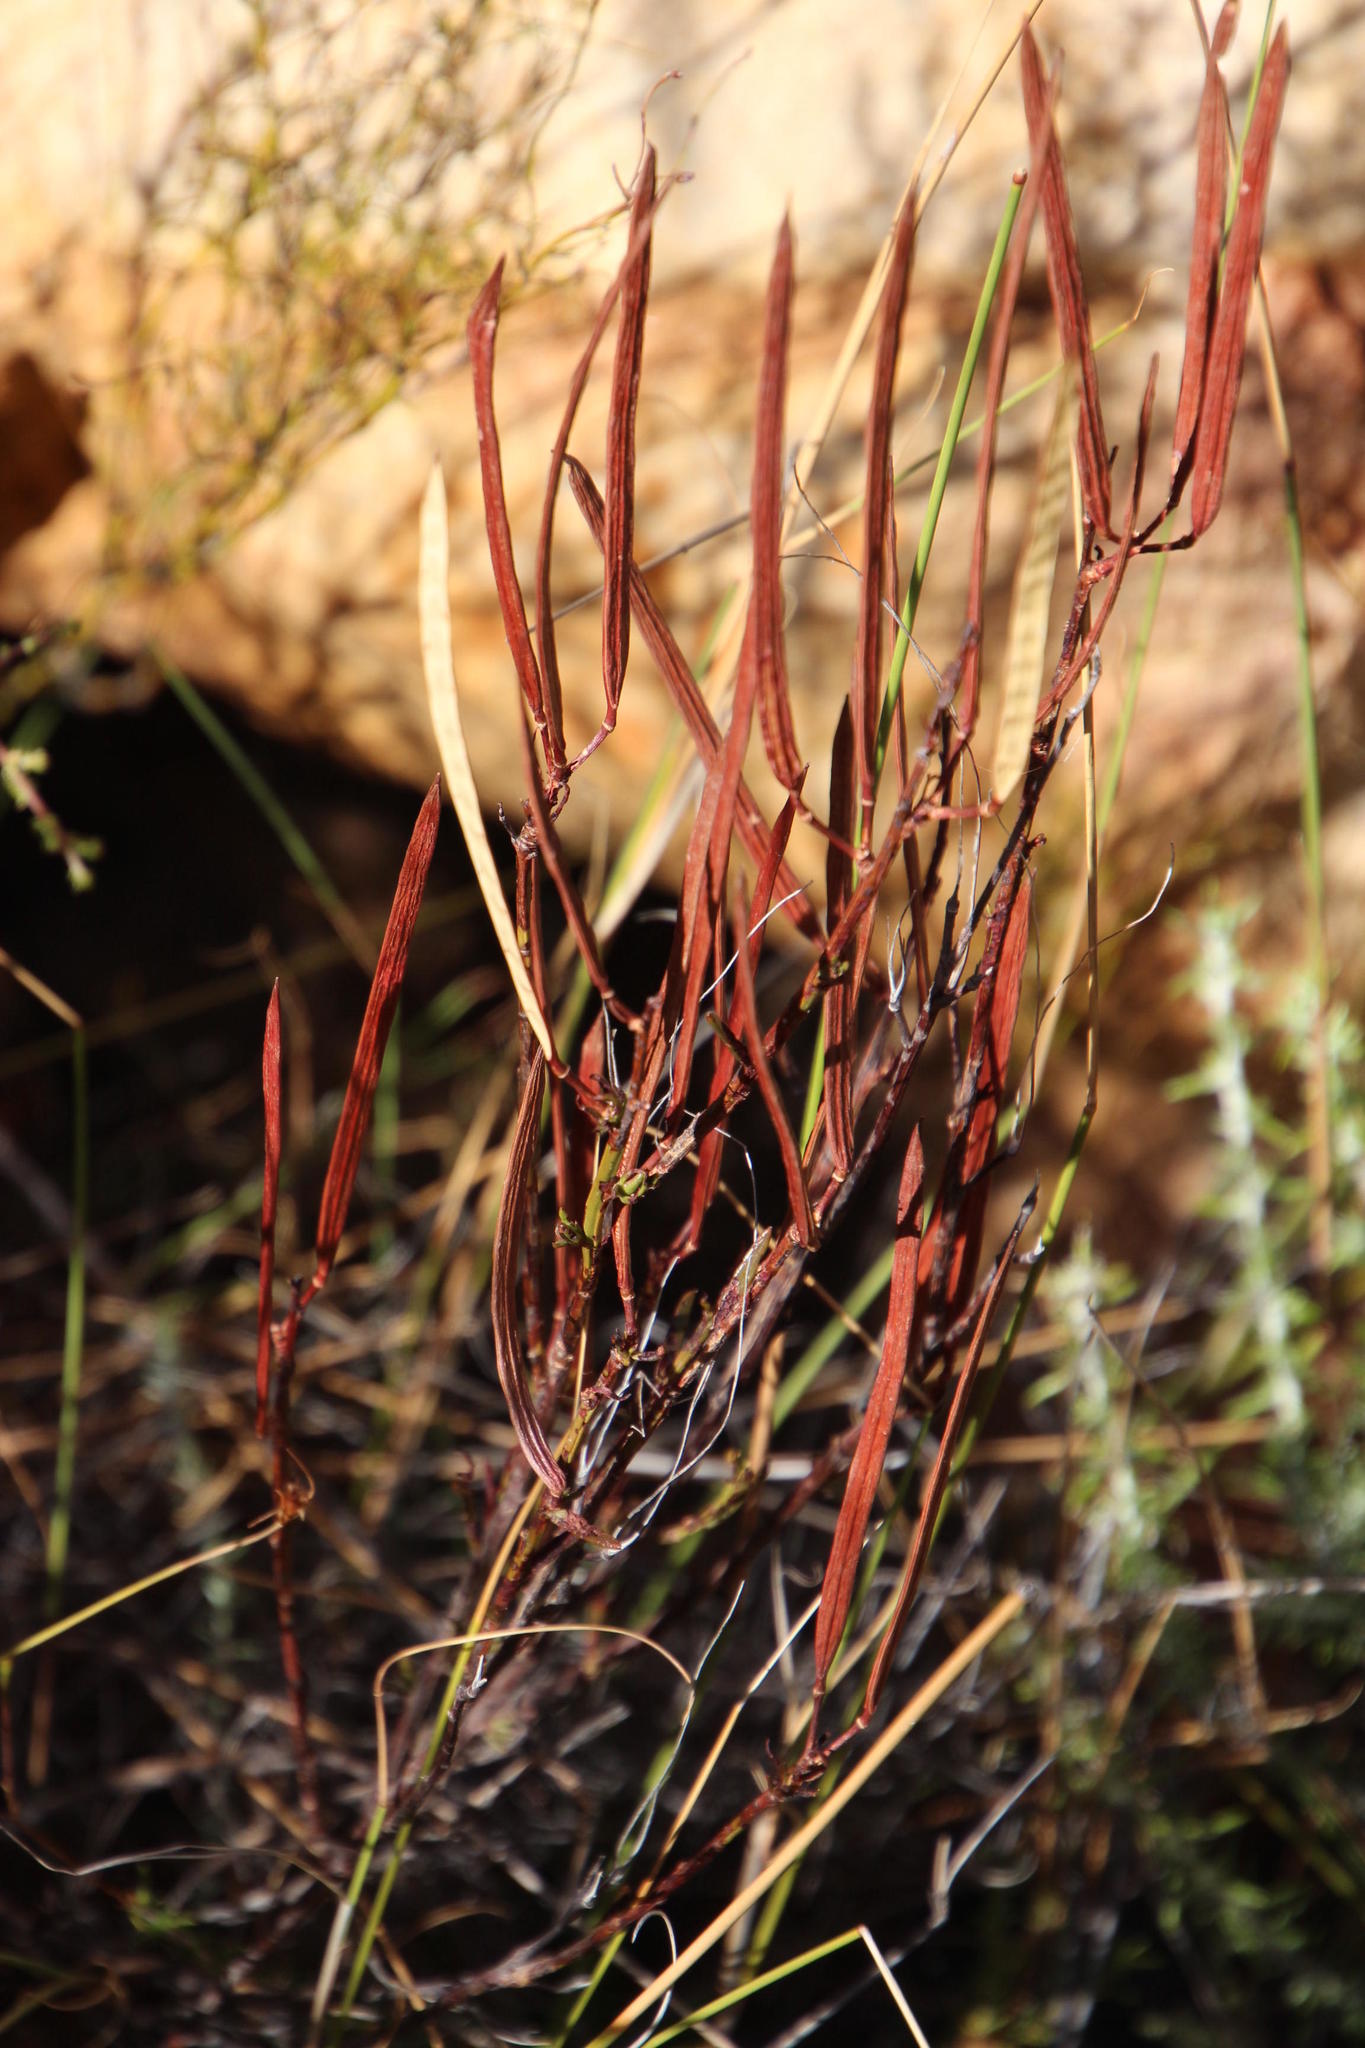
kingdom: Plantae
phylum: Tracheophyta
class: Magnoliopsida
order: Brassicales
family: Brassicaceae
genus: Heliophila
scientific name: Heliophila scoparia
